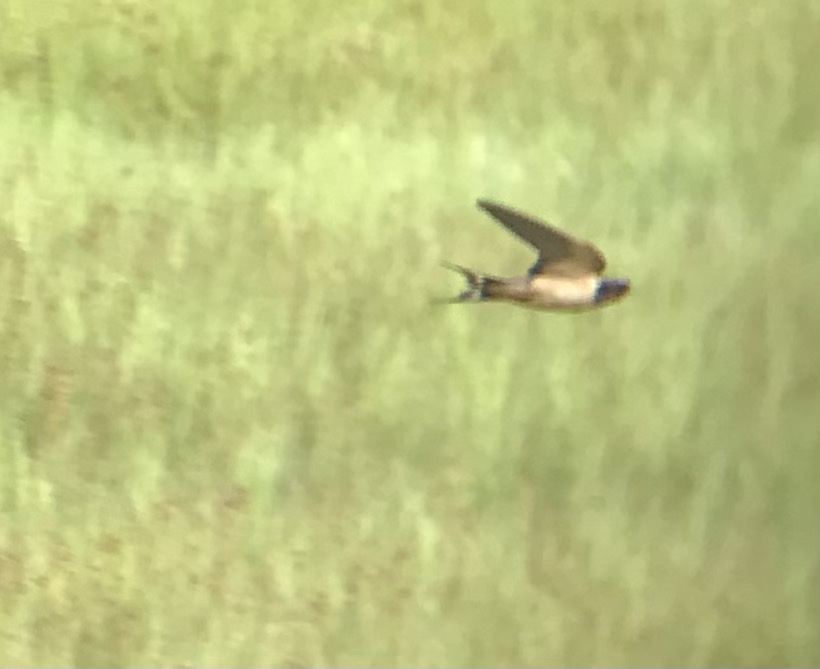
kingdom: Animalia
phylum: Chordata
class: Aves
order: Passeriformes
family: Hirundinidae
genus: Hirundo
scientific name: Hirundo rustica
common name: Barn swallow
